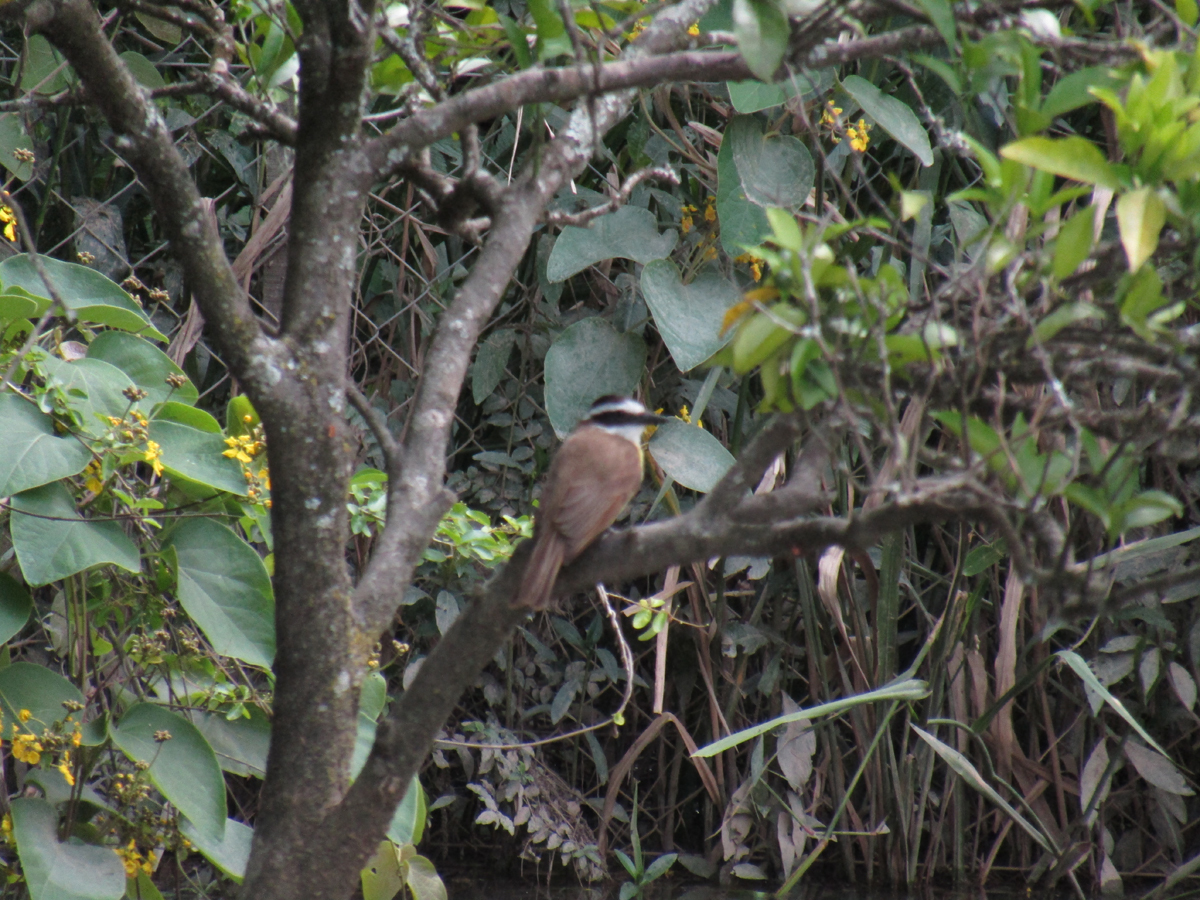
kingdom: Animalia
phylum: Chordata
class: Aves
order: Passeriformes
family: Tyrannidae
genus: Pitangus
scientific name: Pitangus sulphuratus
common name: Great kiskadee
